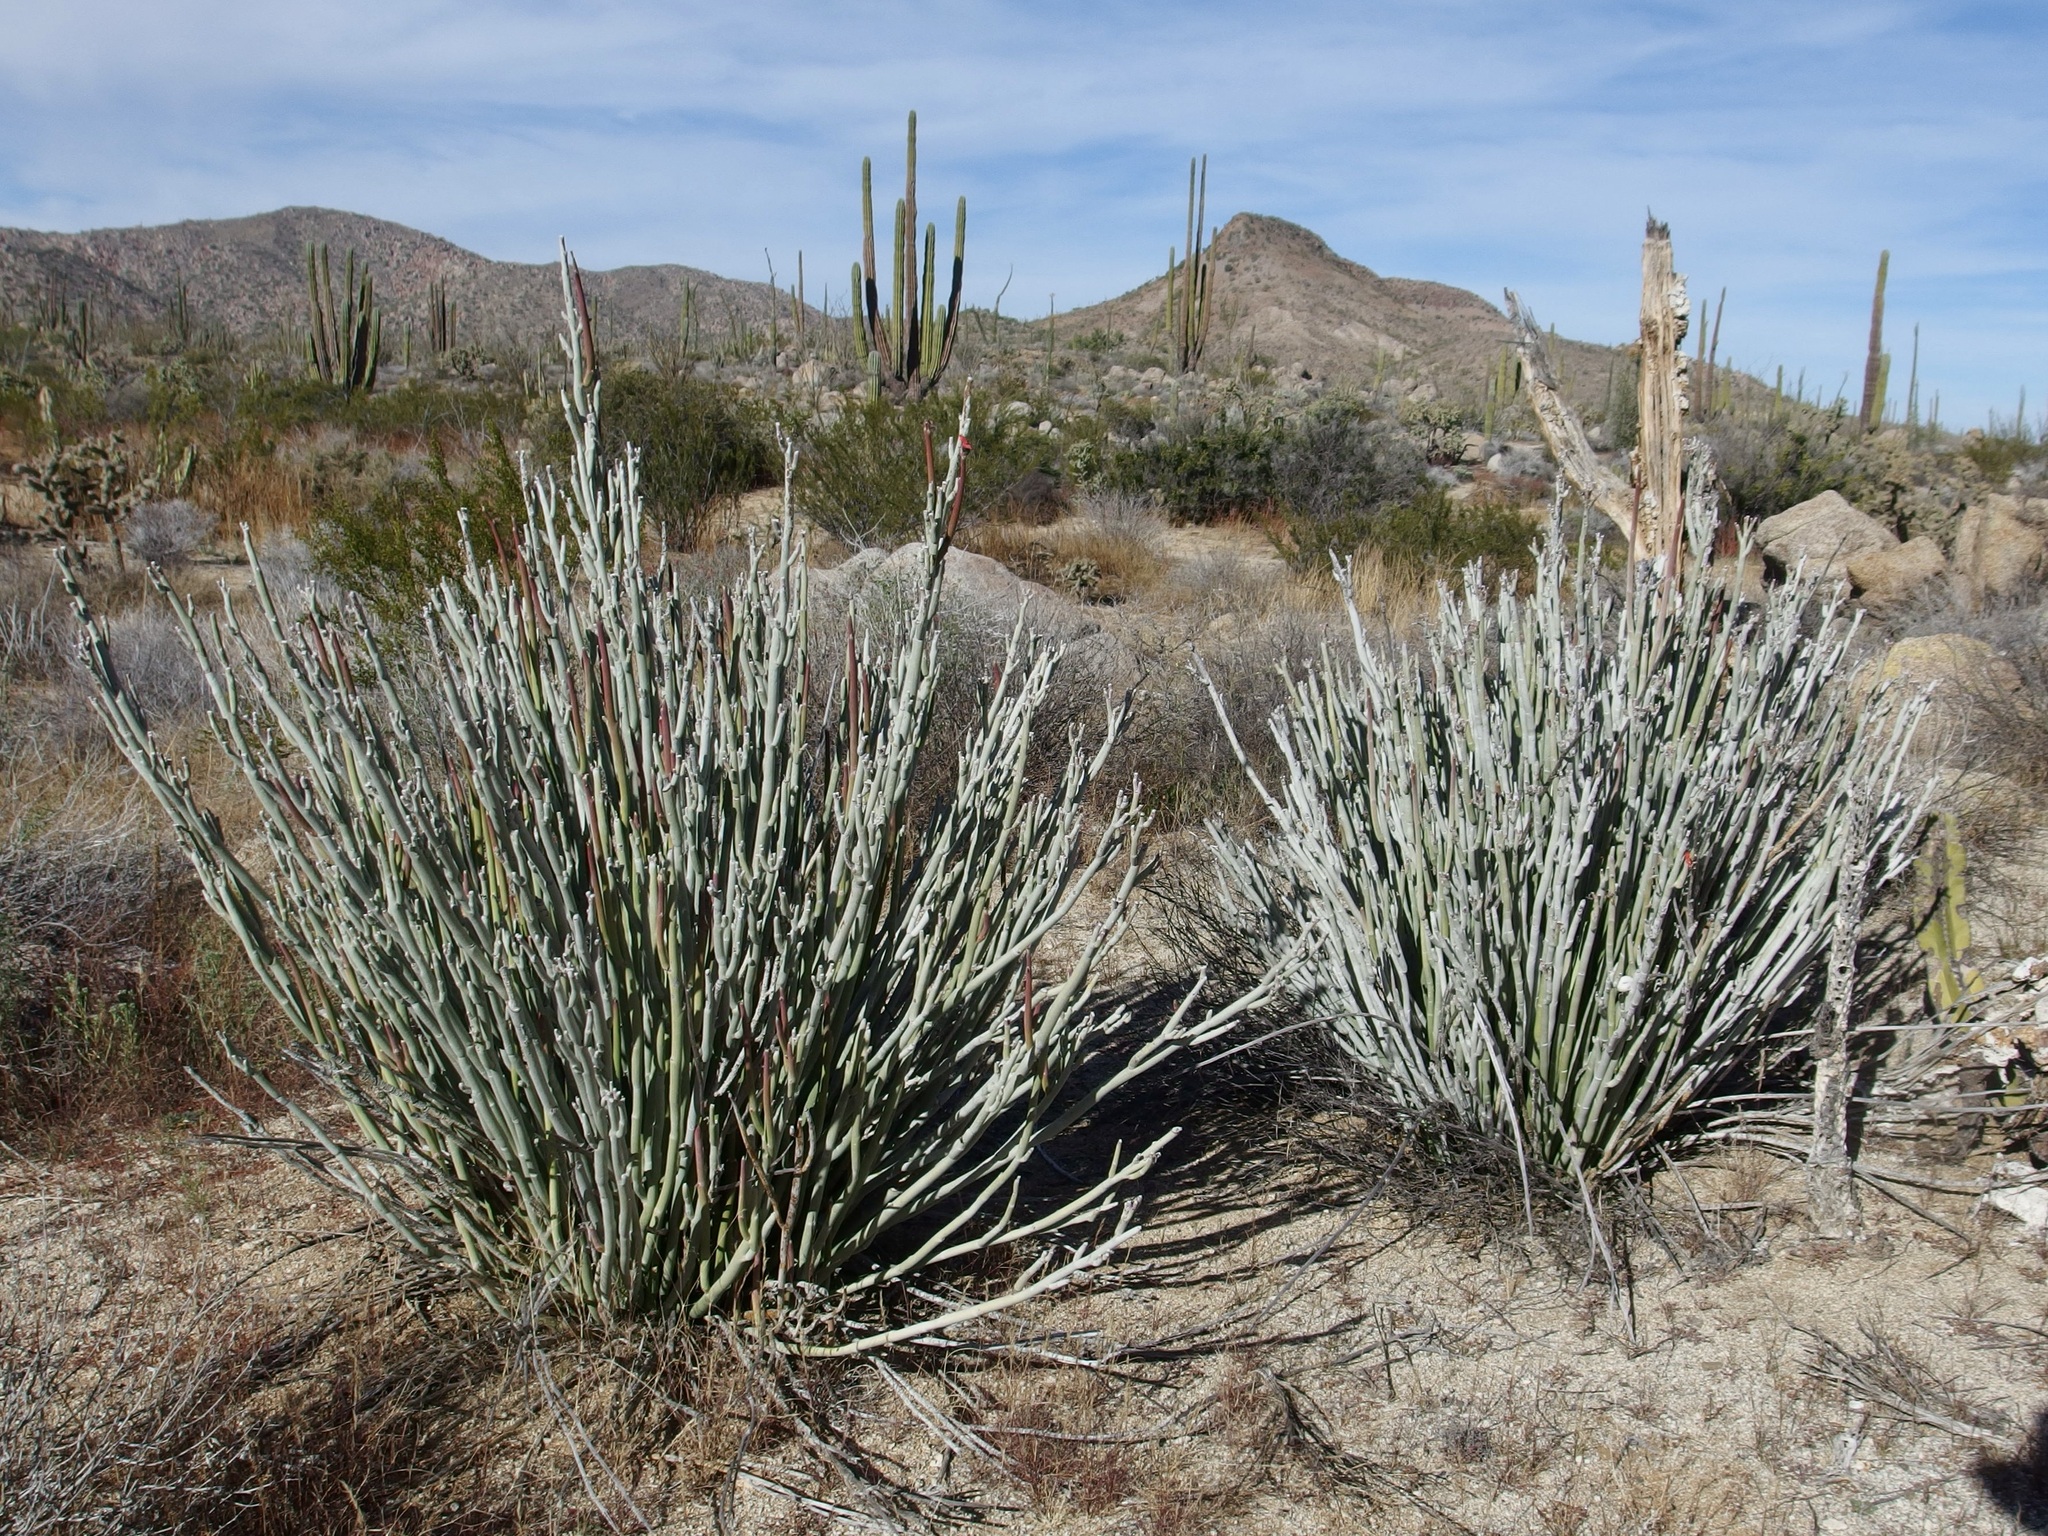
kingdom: Plantae
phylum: Tracheophyta
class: Magnoliopsida
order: Malpighiales
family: Euphorbiaceae
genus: Euphorbia
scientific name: Euphorbia lomelii
